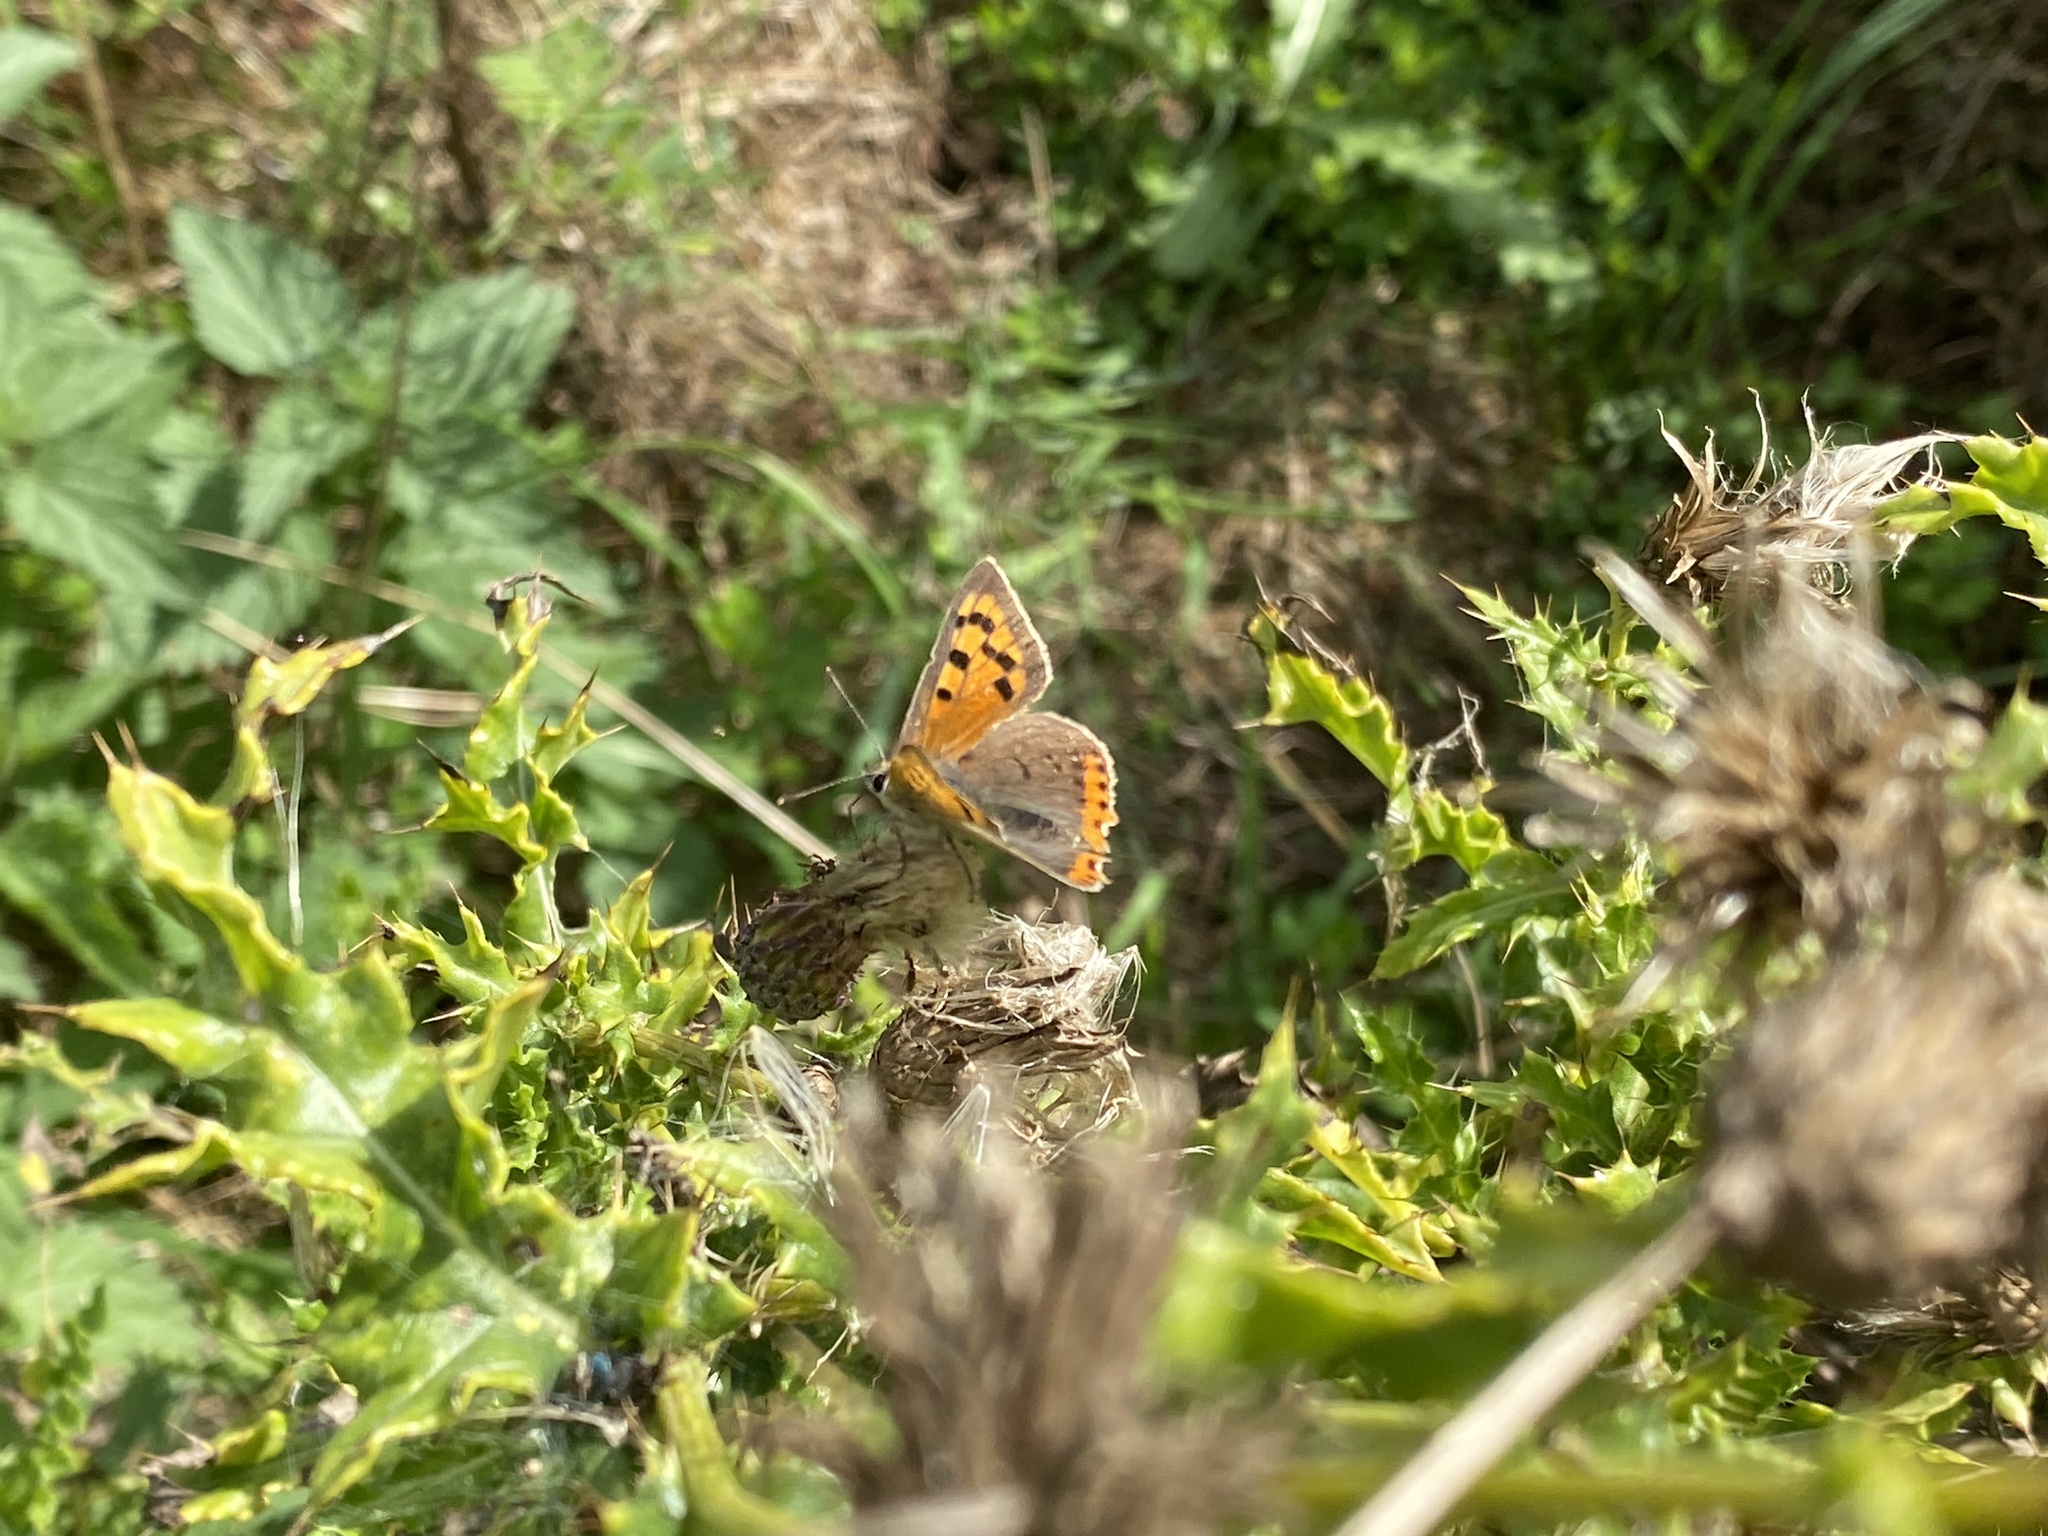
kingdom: Animalia
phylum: Arthropoda
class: Insecta
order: Lepidoptera
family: Lycaenidae
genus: Lycaena
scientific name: Lycaena phlaeas
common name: Small copper
